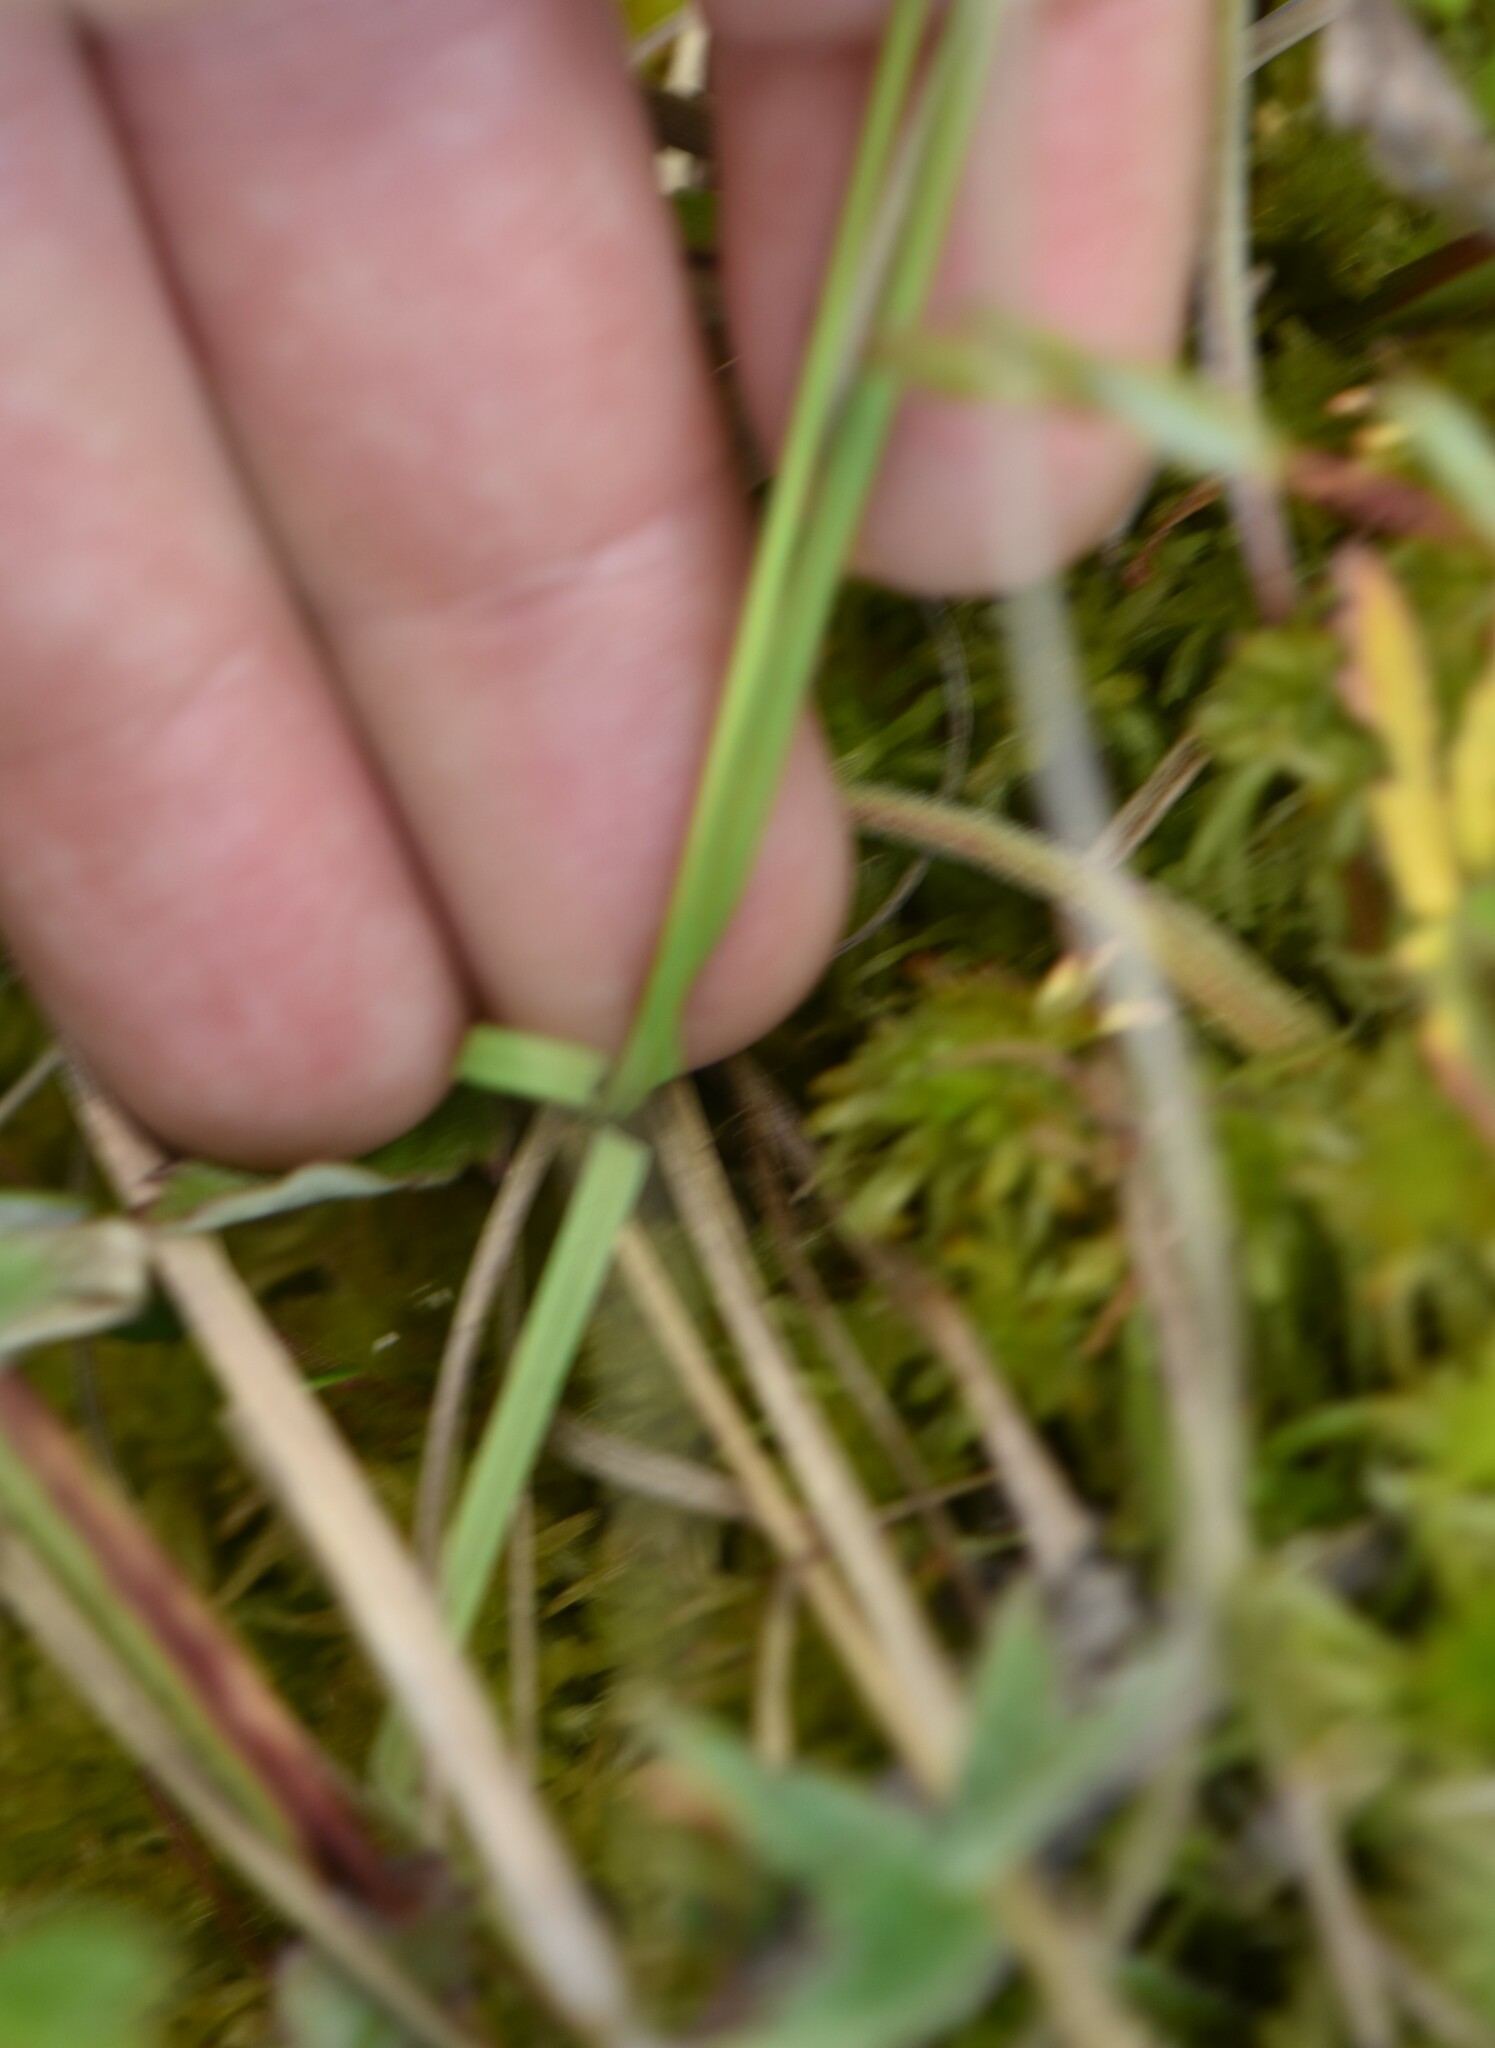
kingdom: Plantae
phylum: Tracheophyta
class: Liliopsida
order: Poales
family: Cyperaceae
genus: Carex
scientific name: Carex canescens
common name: White sedge
